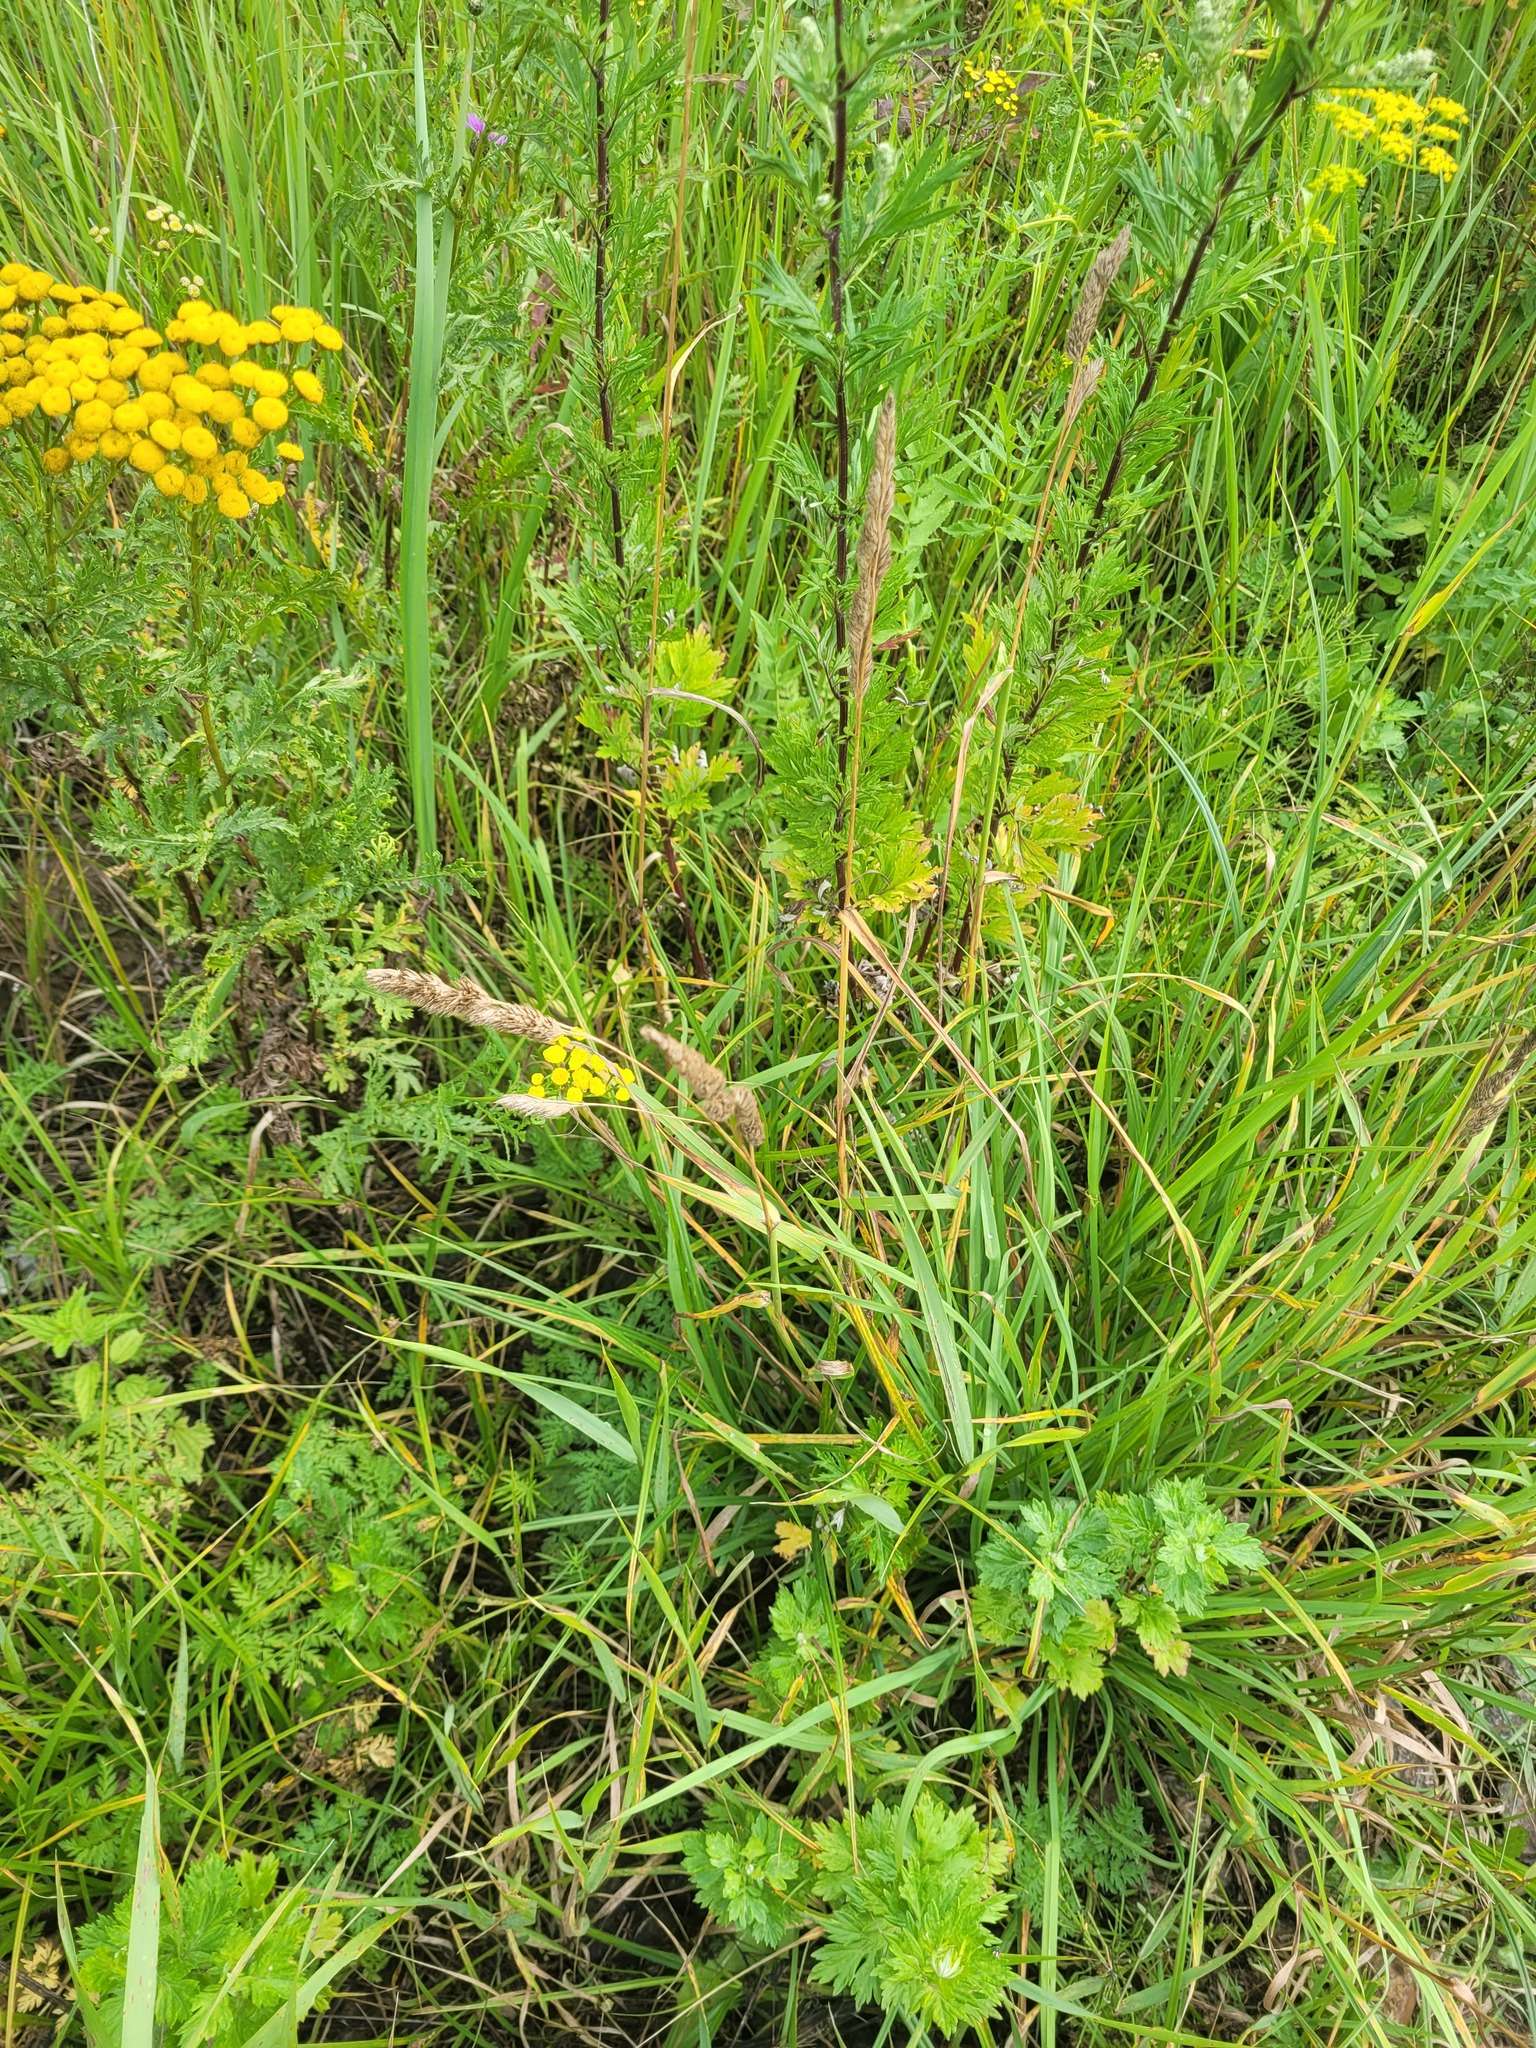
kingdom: Plantae
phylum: Tracheophyta
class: Liliopsida
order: Poales
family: Poaceae
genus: Dactylis
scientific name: Dactylis glomerata
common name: Orchardgrass
